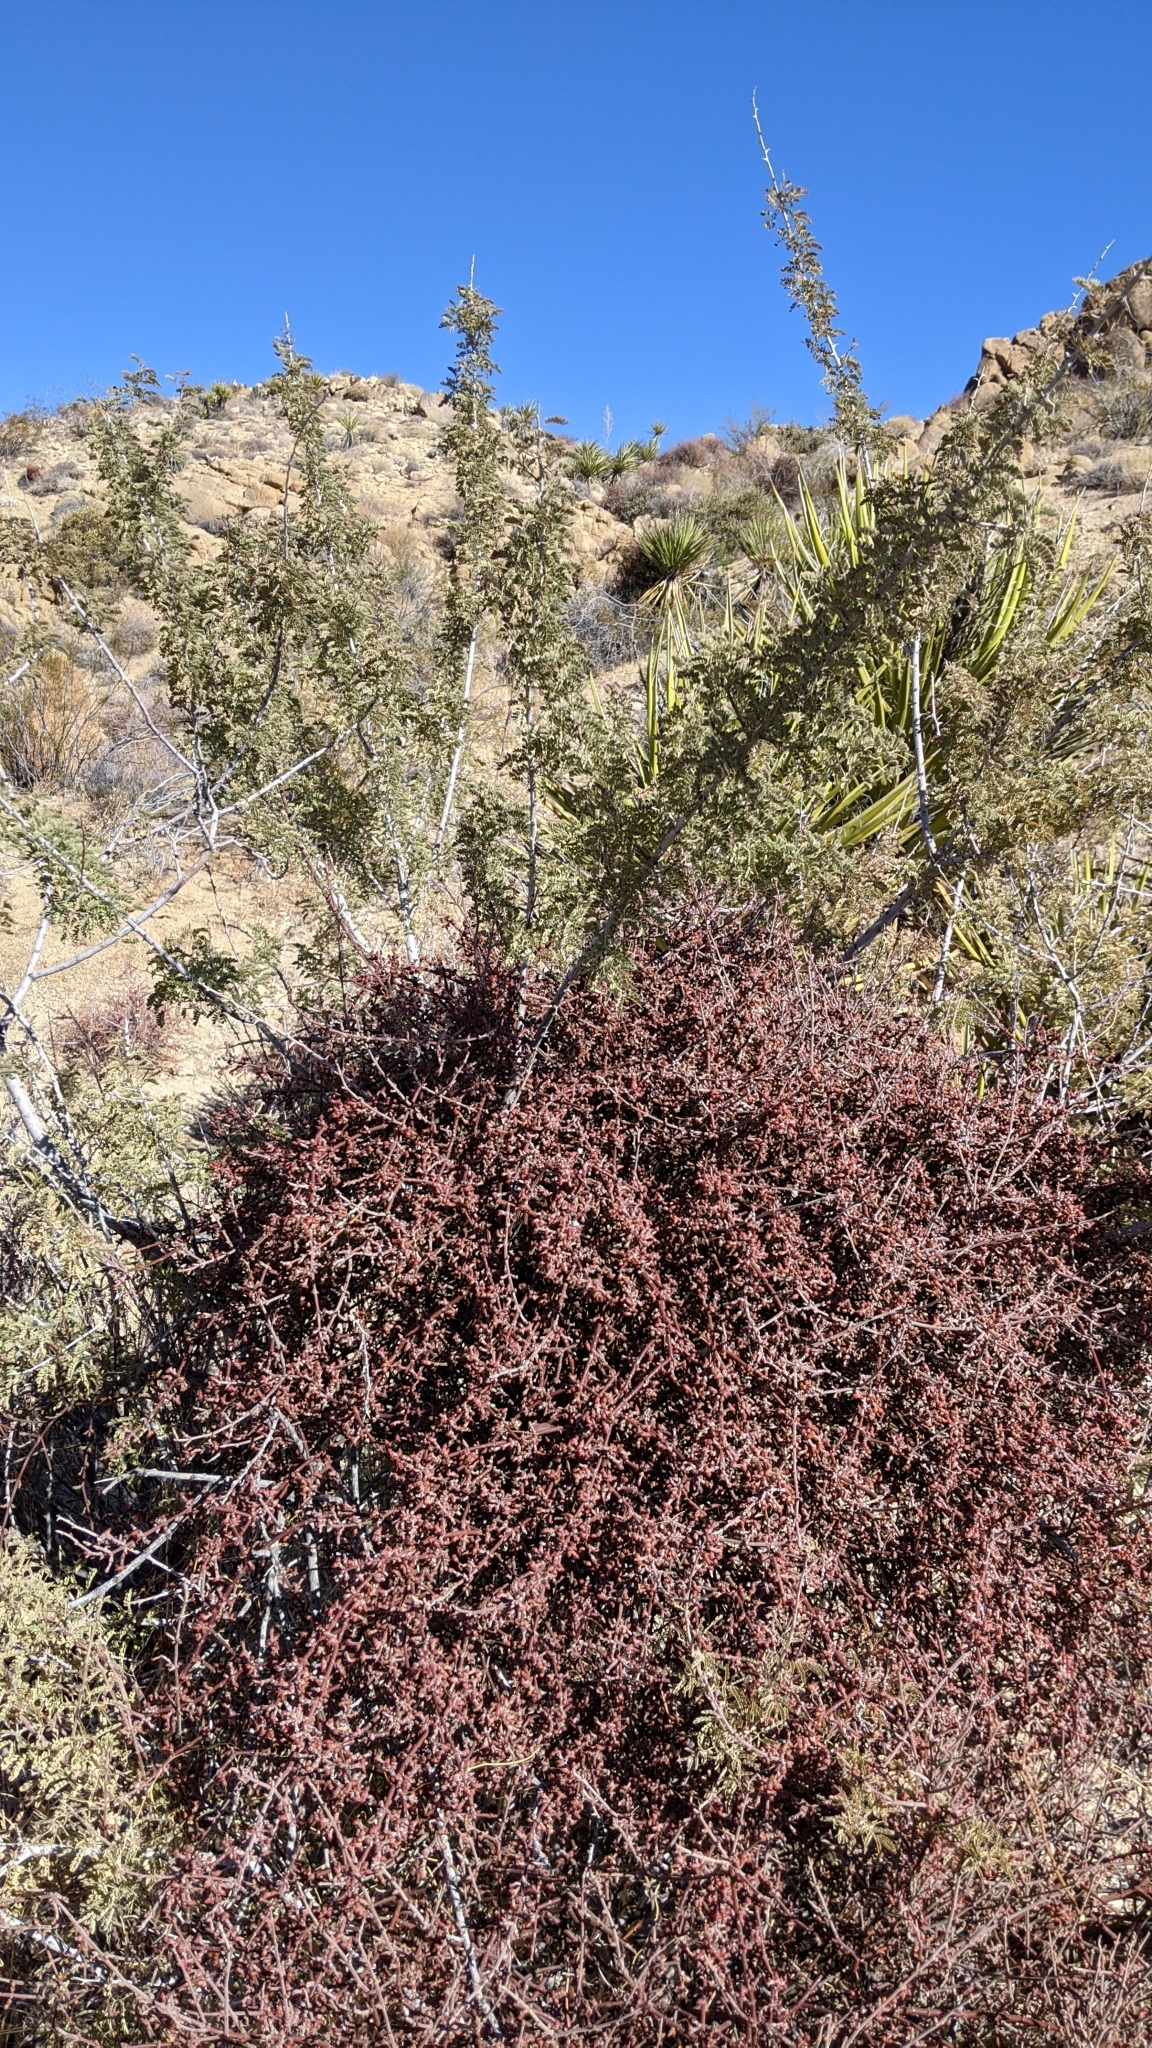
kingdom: Plantae
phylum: Tracheophyta
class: Magnoliopsida
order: Santalales
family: Viscaceae
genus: Phoradendron
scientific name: Phoradendron californicum
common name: Acacia mistletoe
